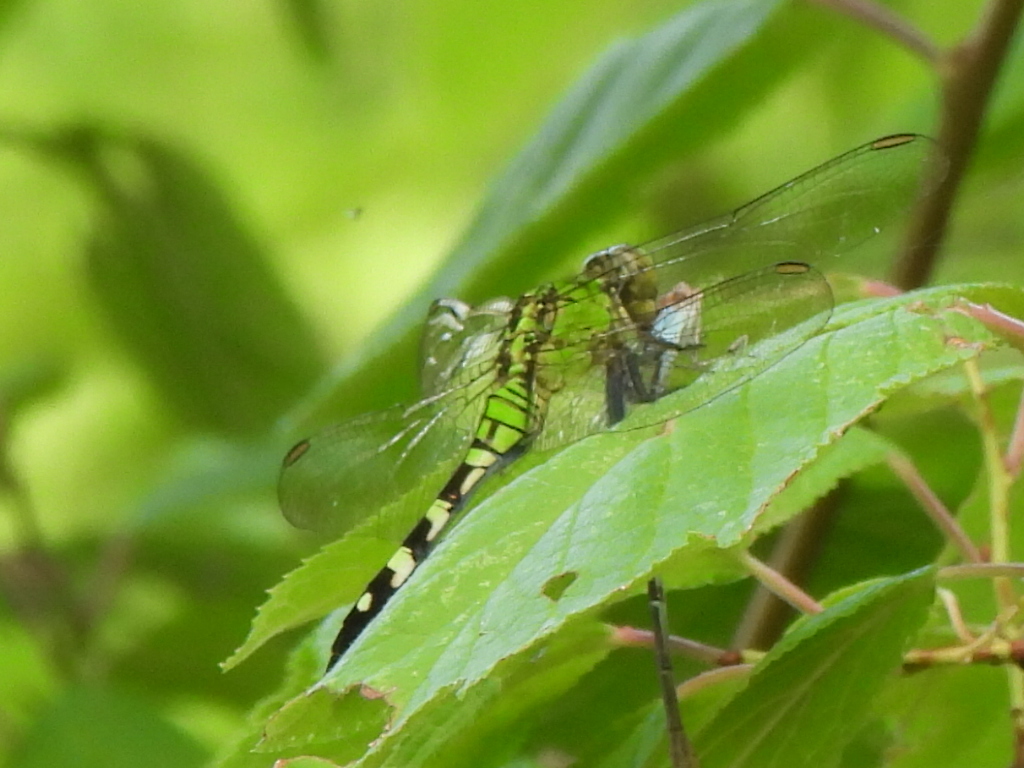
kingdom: Animalia
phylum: Arthropoda
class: Insecta
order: Odonata
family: Libellulidae
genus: Erythemis
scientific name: Erythemis simplicicollis
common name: Eastern pondhawk
